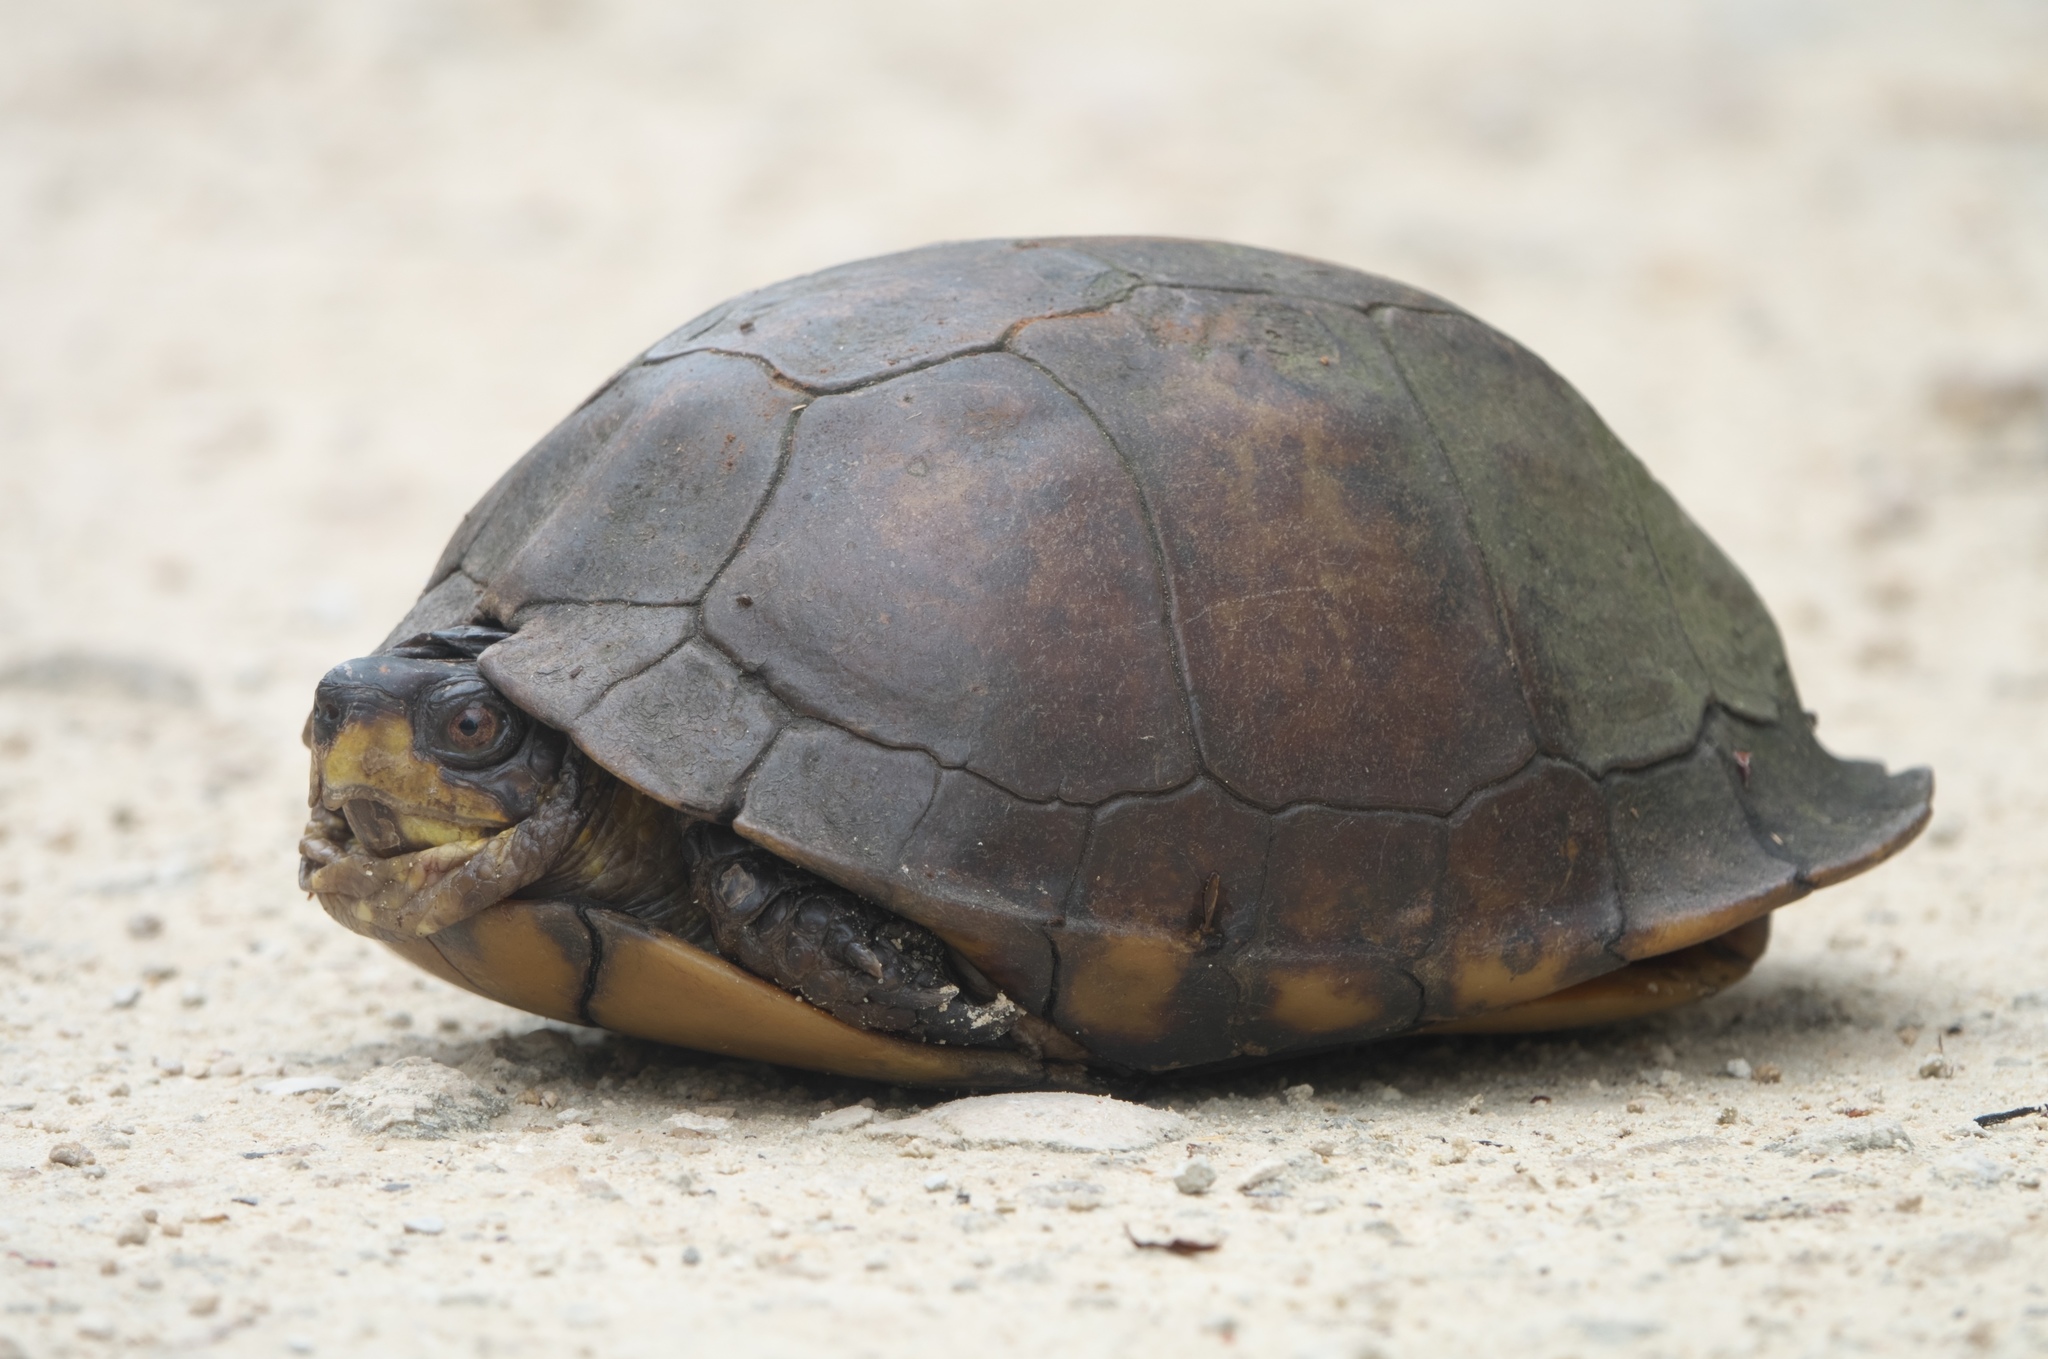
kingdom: Animalia
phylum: Chordata
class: Testudines
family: Emydidae
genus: Terrapene
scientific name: Terrapene carolina
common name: Common box turtle
